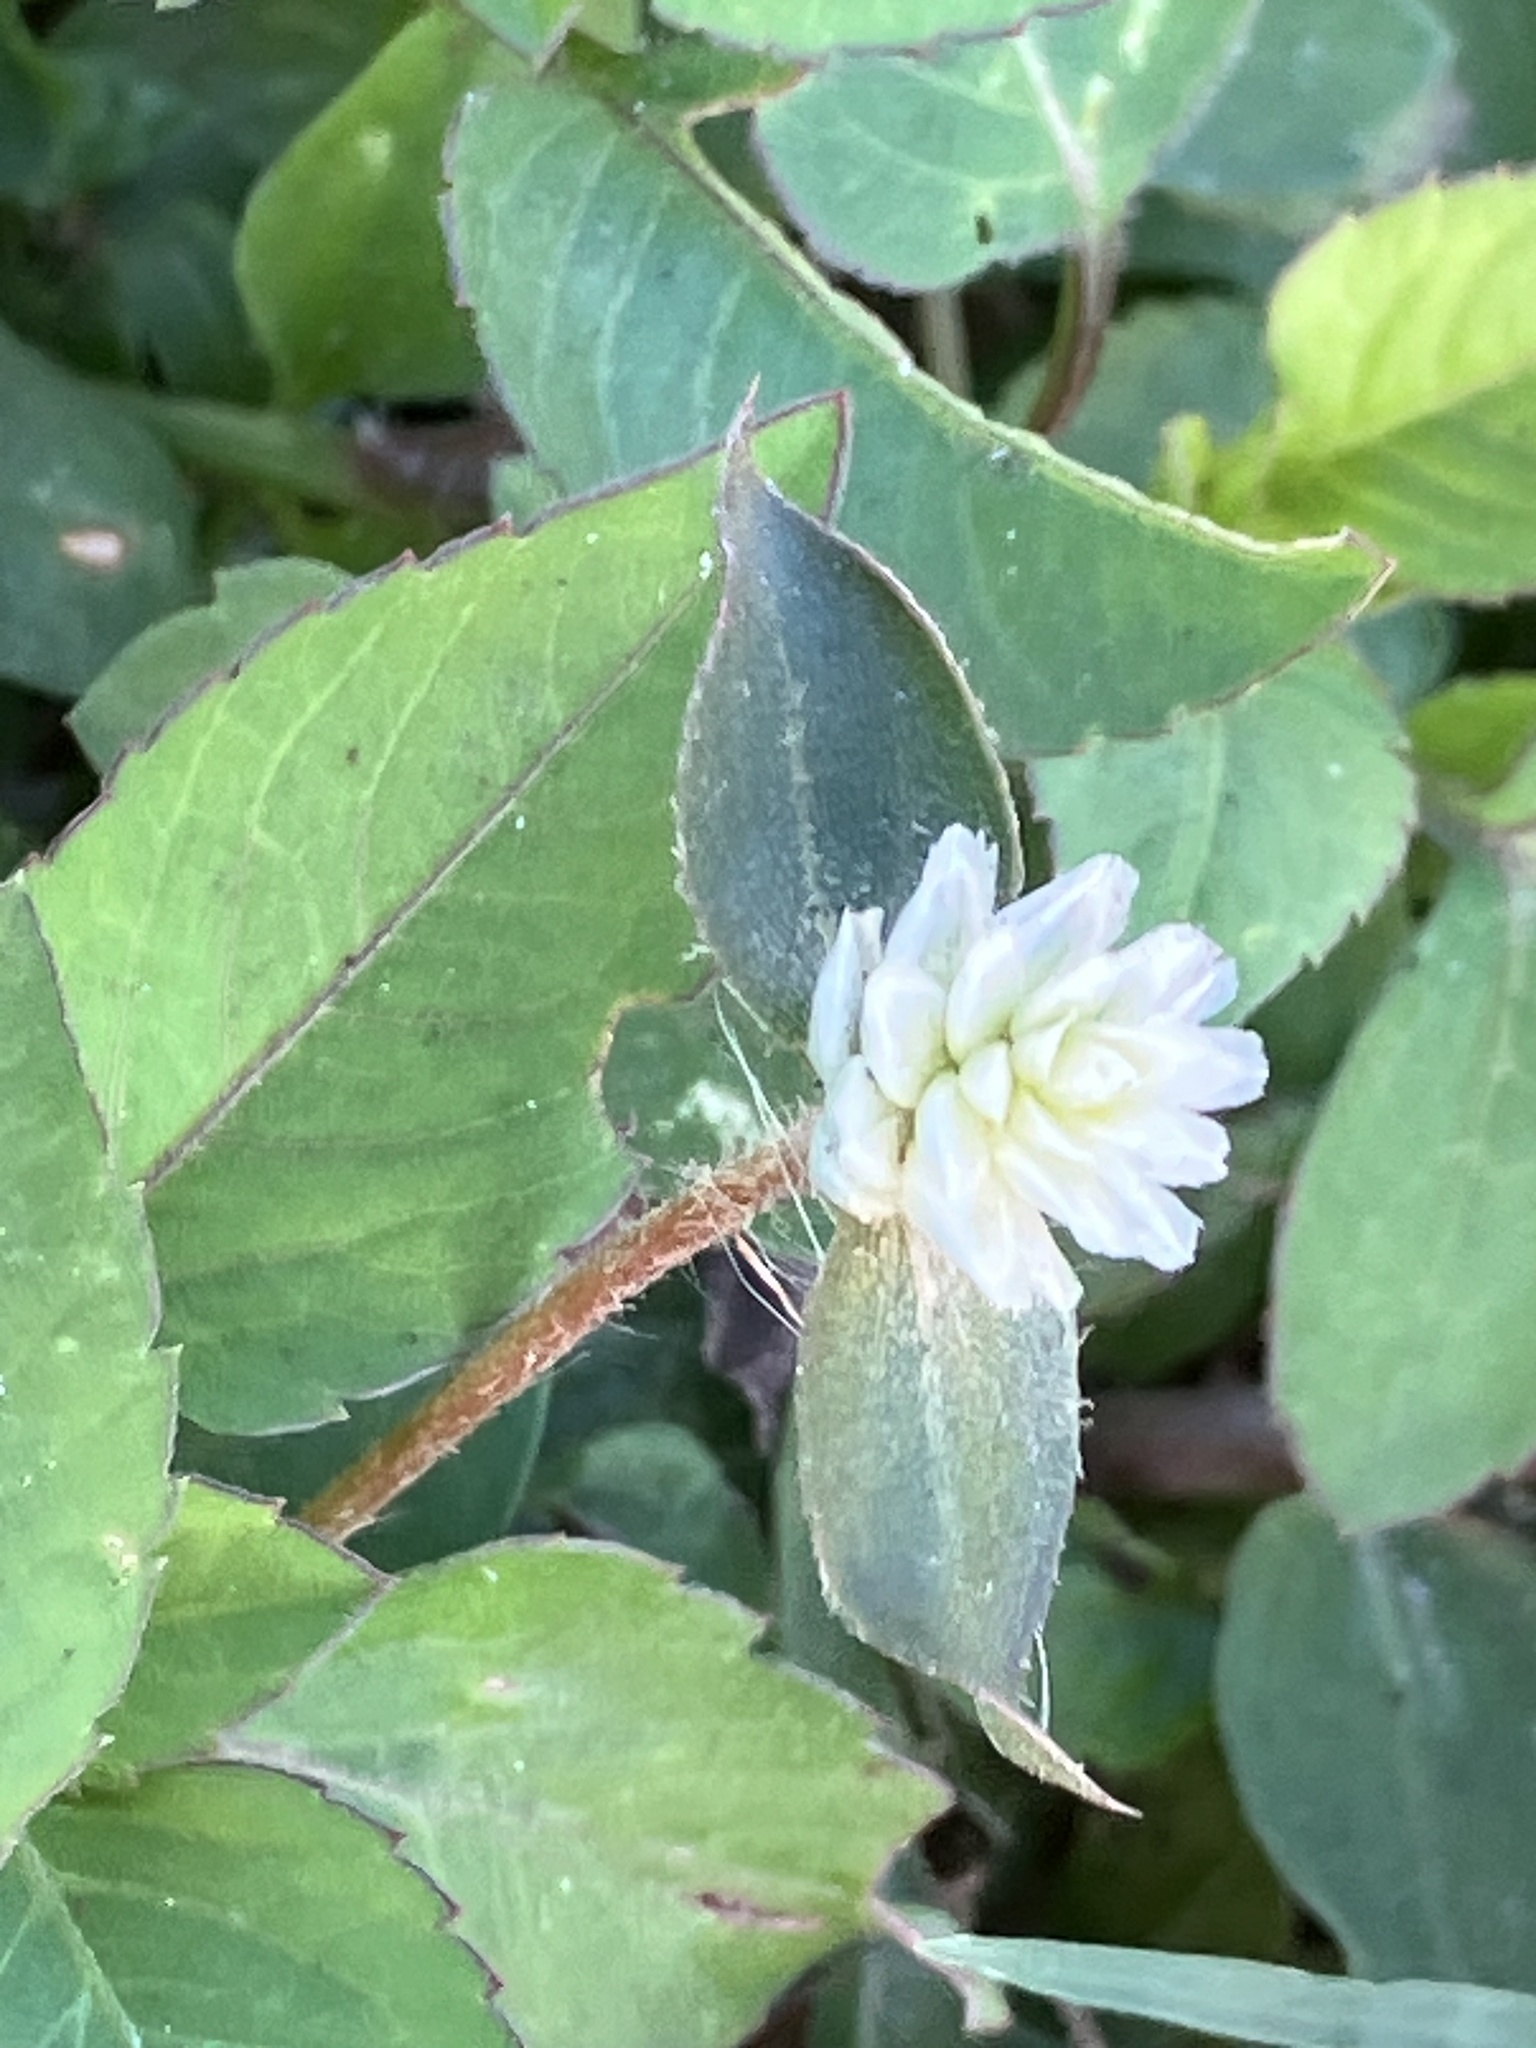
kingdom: Plantae
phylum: Tracheophyta
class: Magnoliopsida
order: Caryophyllales
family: Amaranthaceae
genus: Gomphrena
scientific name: Gomphrena serrata
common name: Arrasa con todo
